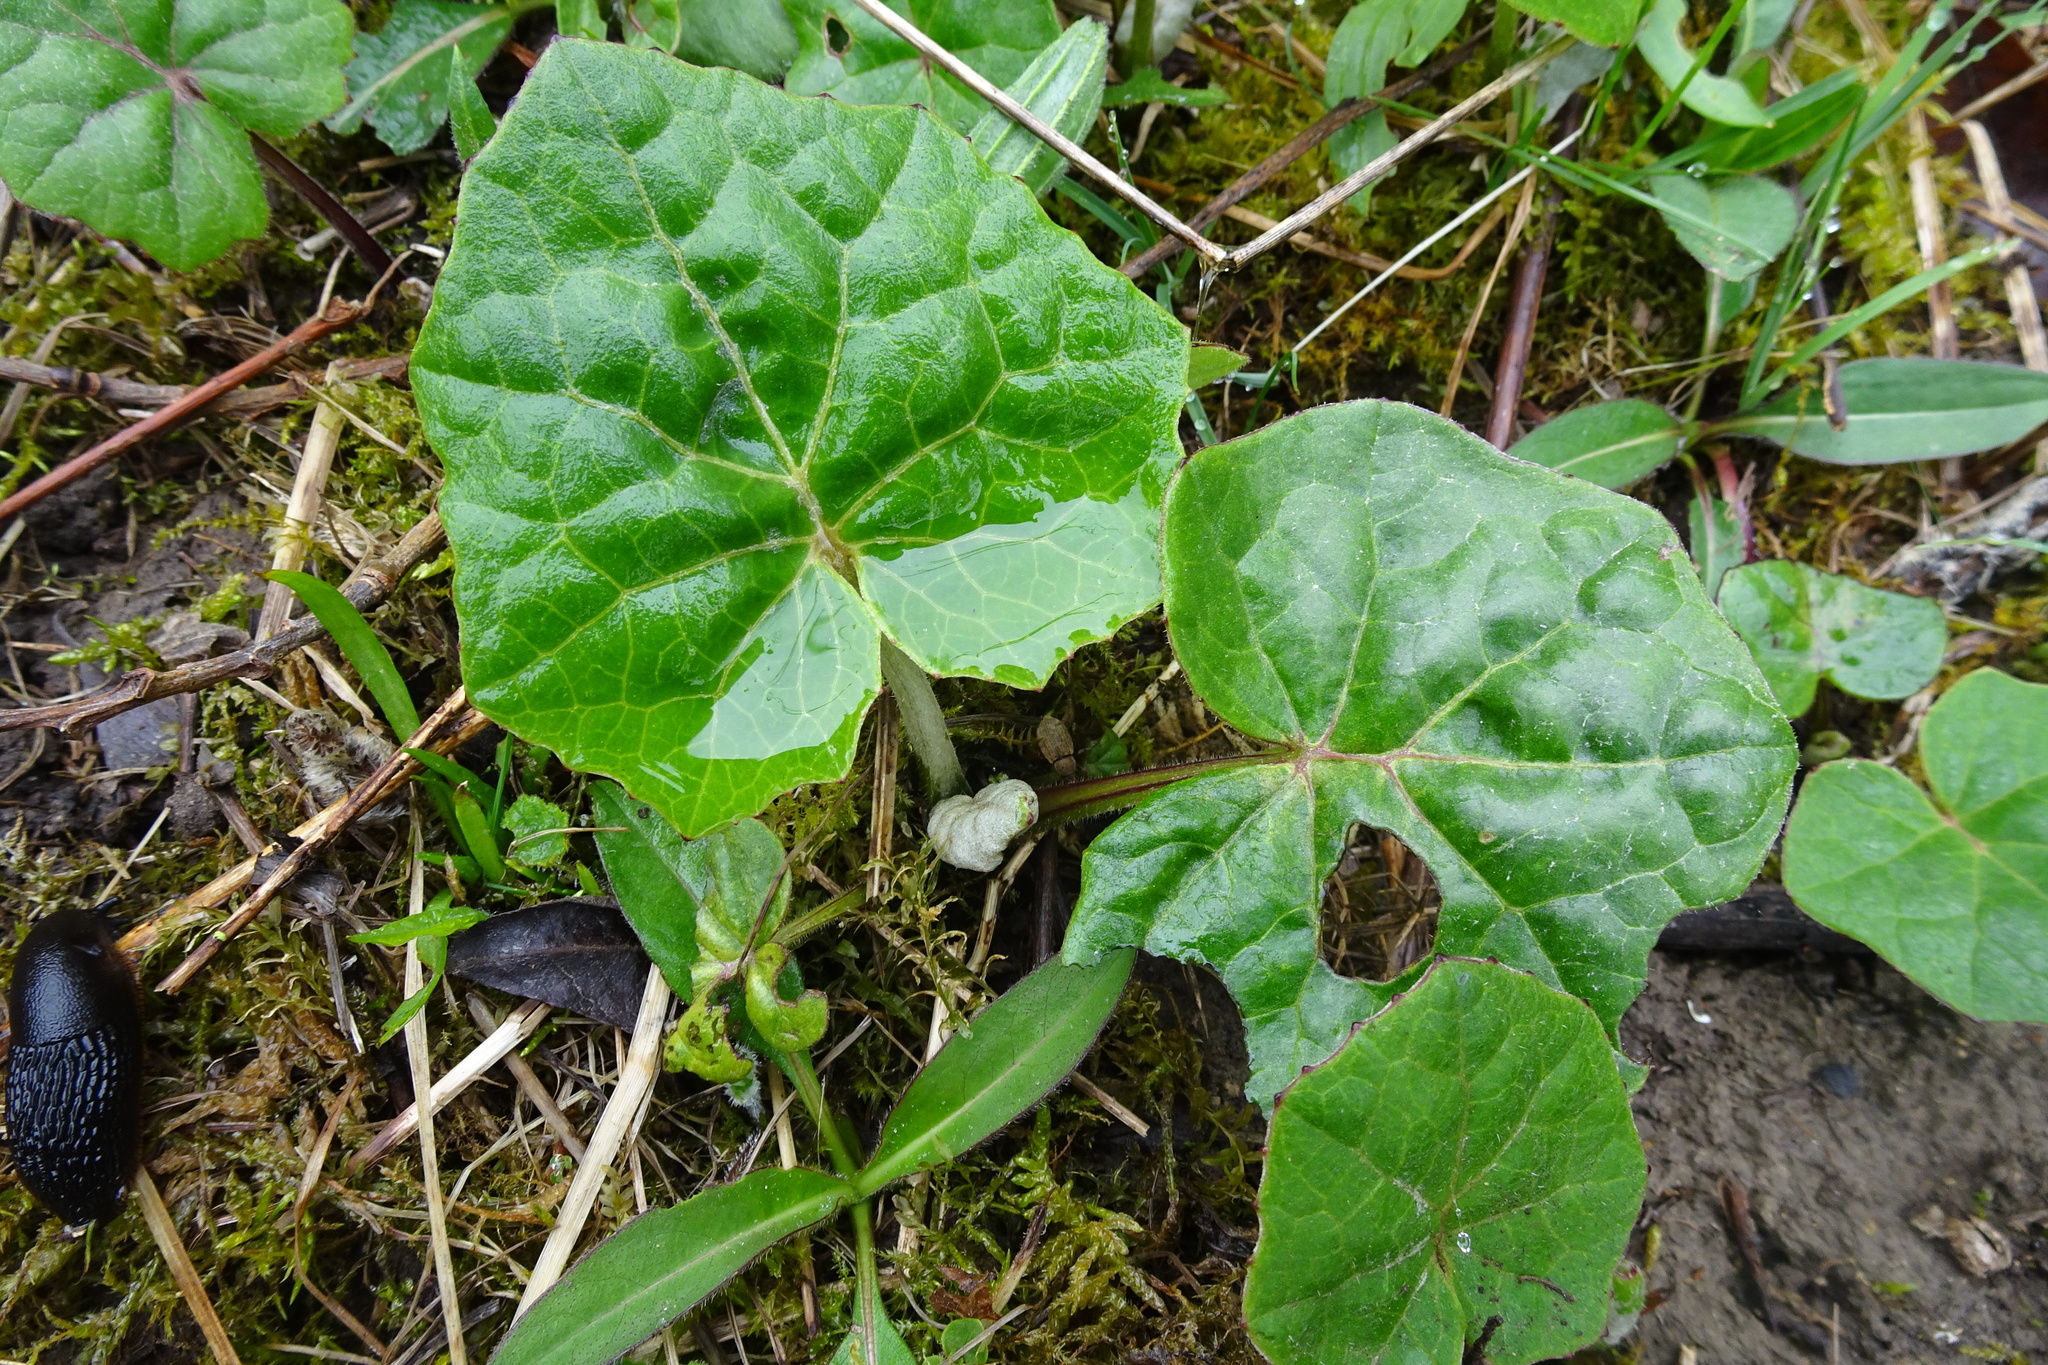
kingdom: Plantae
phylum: Tracheophyta
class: Magnoliopsida
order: Asterales
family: Asteraceae
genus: Tussilago
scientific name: Tussilago farfara
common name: Coltsfoot
